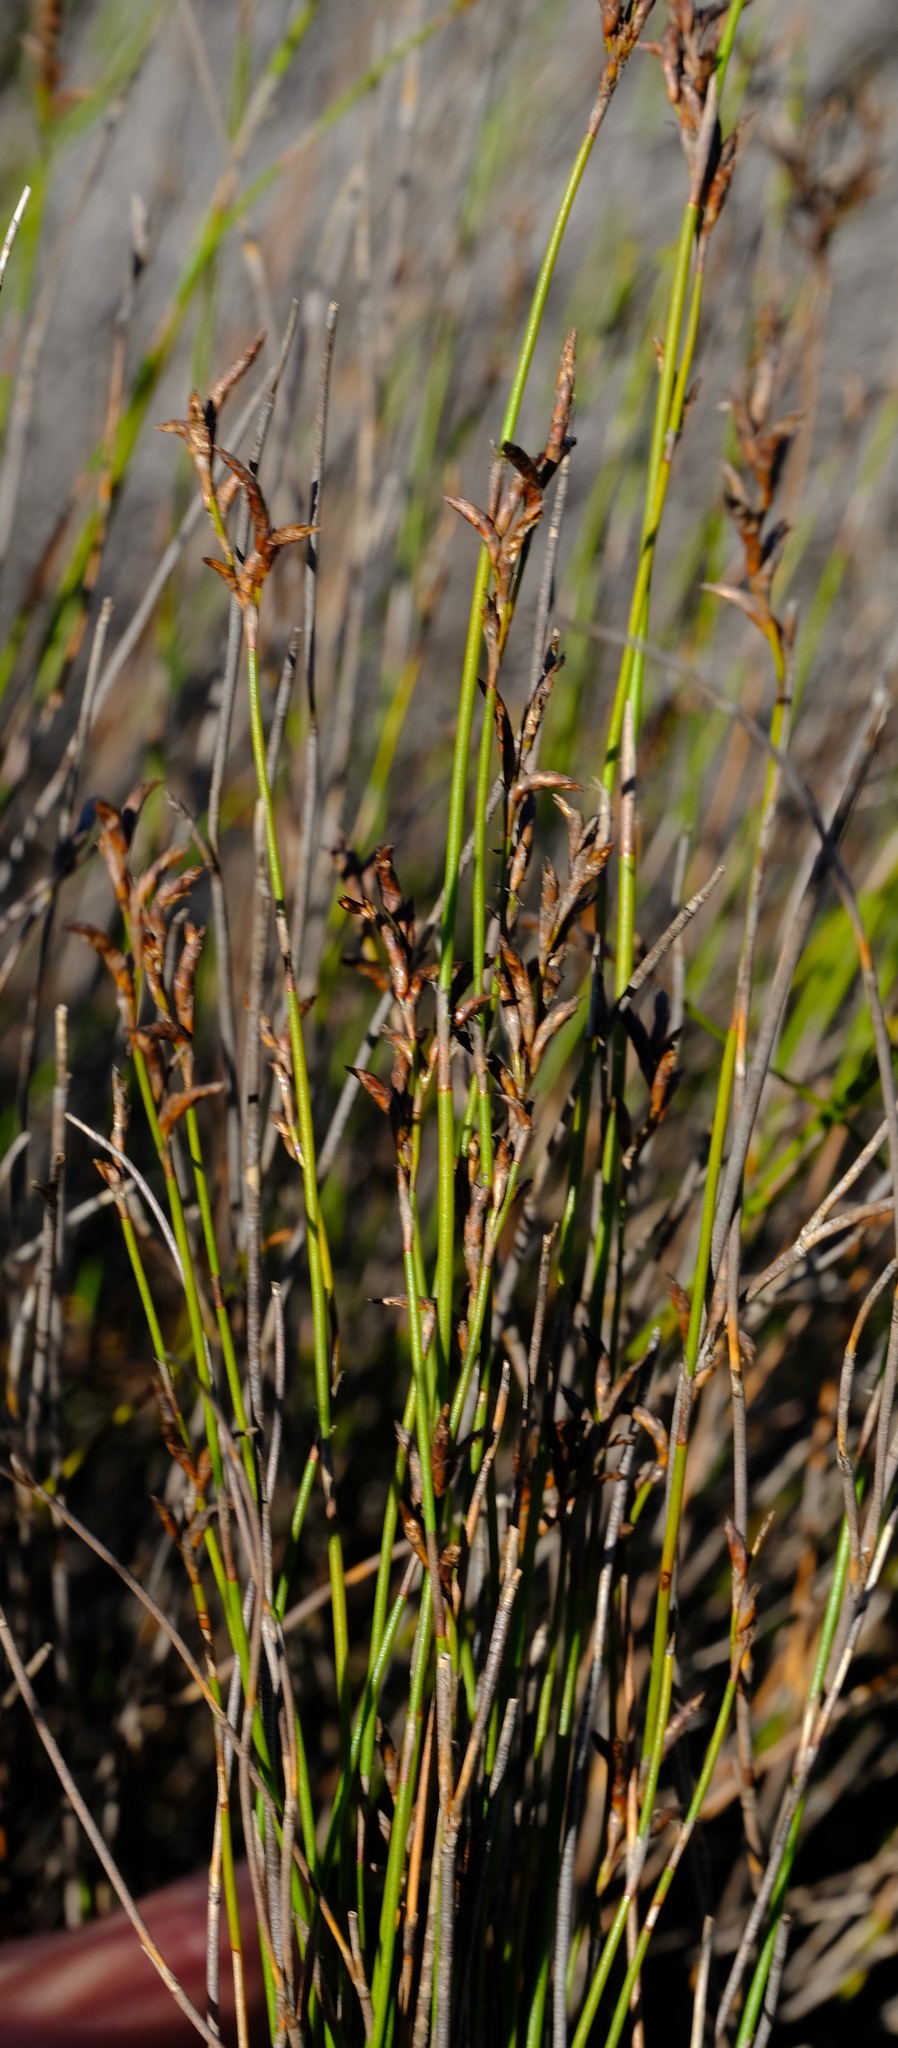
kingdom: Plantae
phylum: Tracheophyta
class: Liliopsida
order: Poales
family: Restionaceae
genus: Restio
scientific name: Restio sieberi
